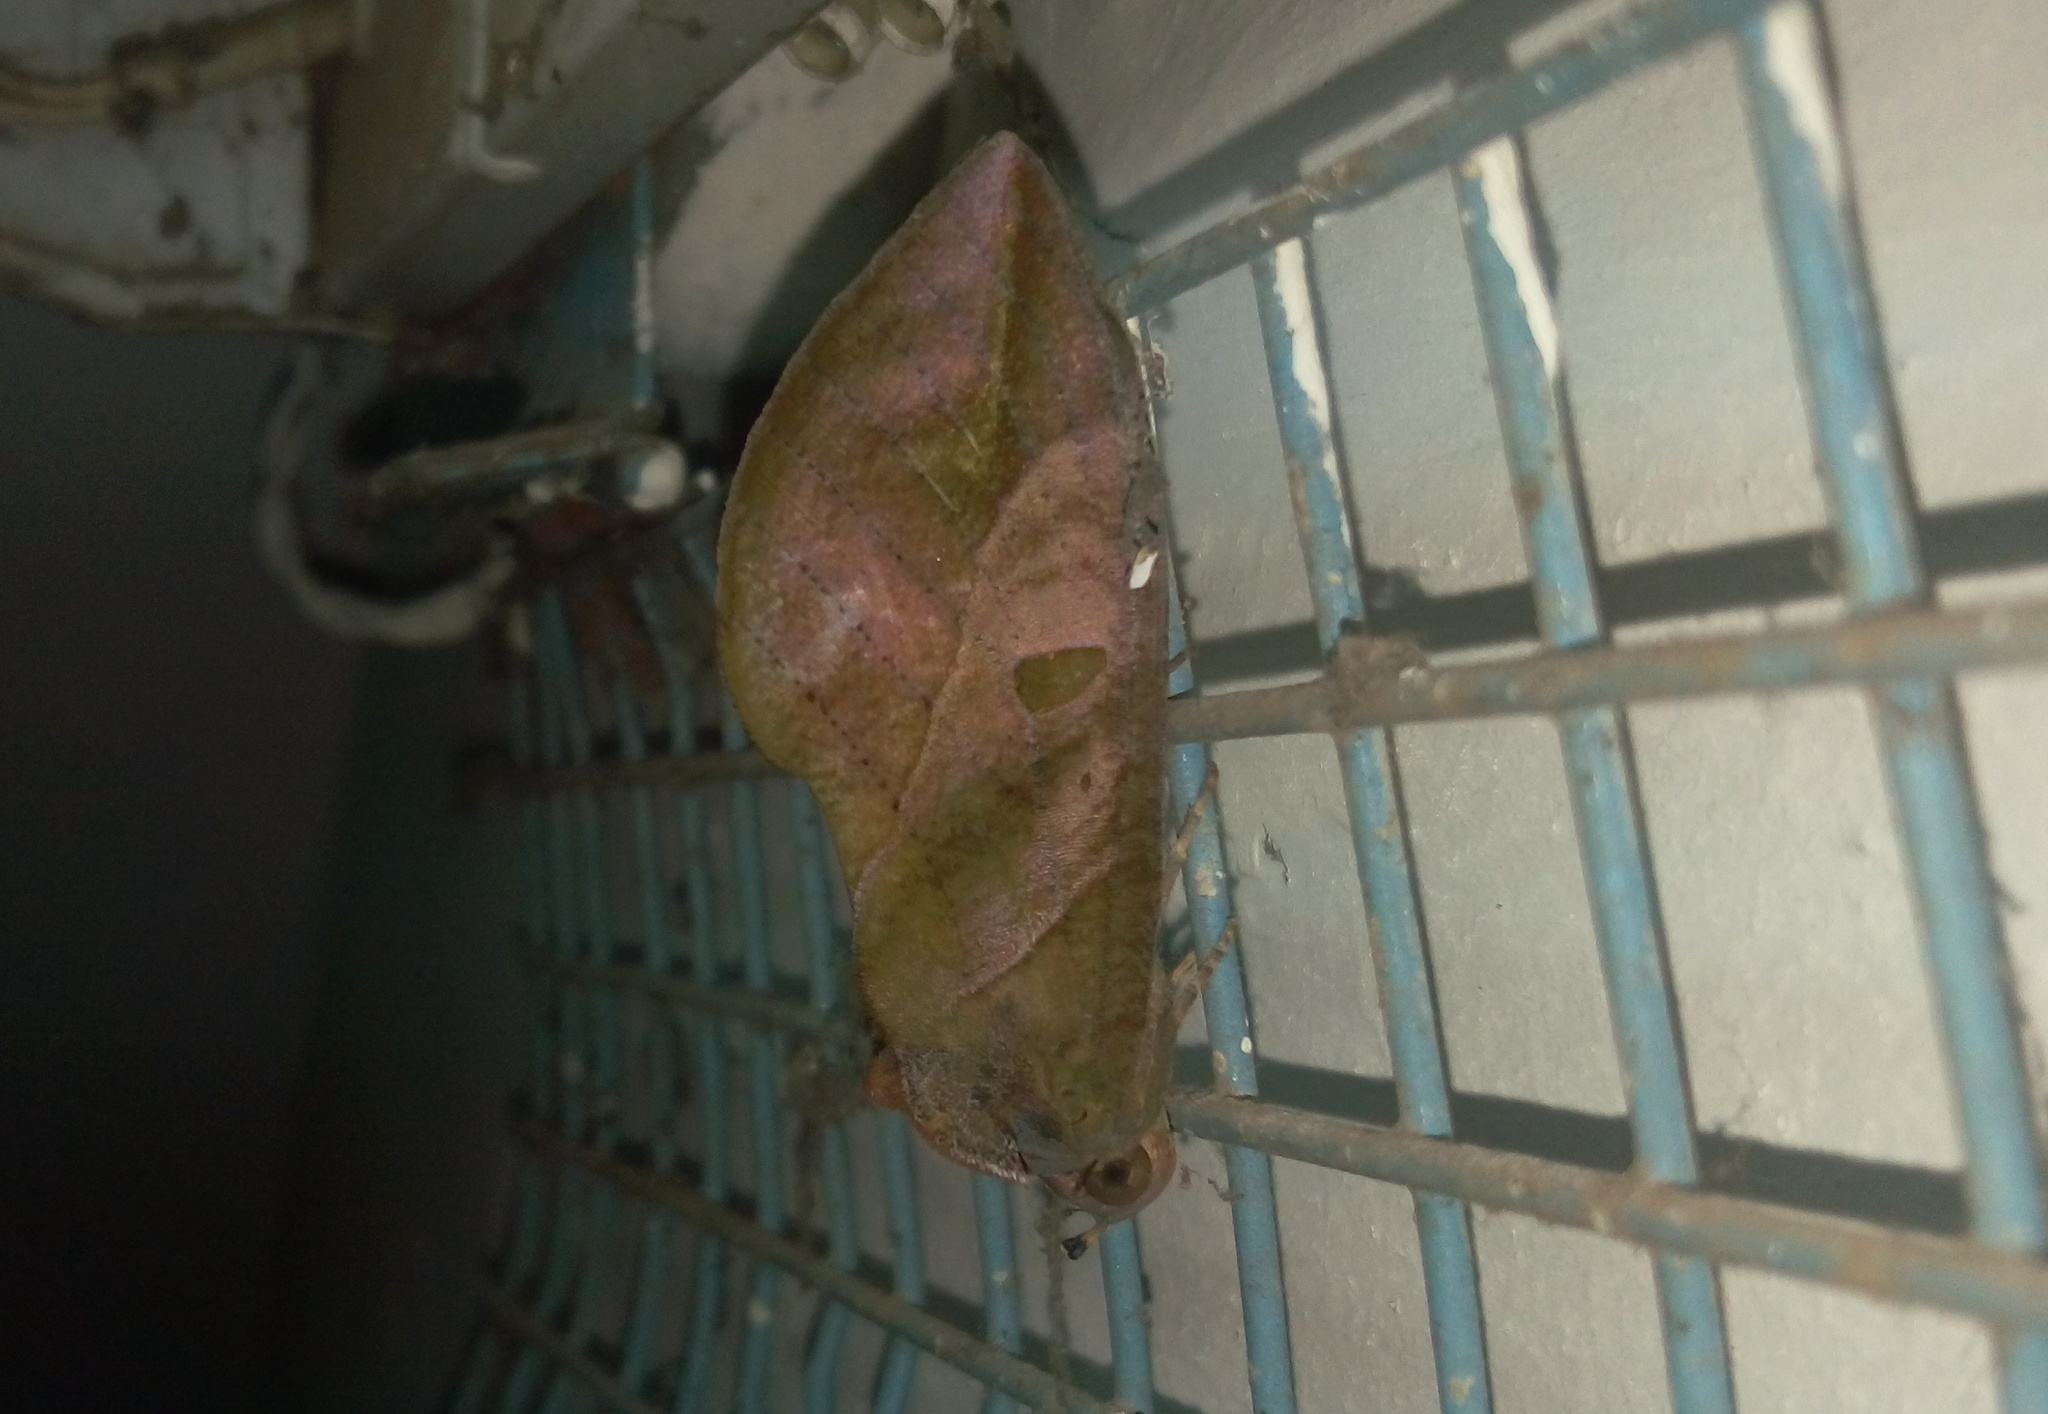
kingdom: Animalia
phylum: Arthropoda
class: Insecta
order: Lepidoptera
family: Erebidae
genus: Eudocima
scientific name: Eudocima phalonia
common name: Wasp
